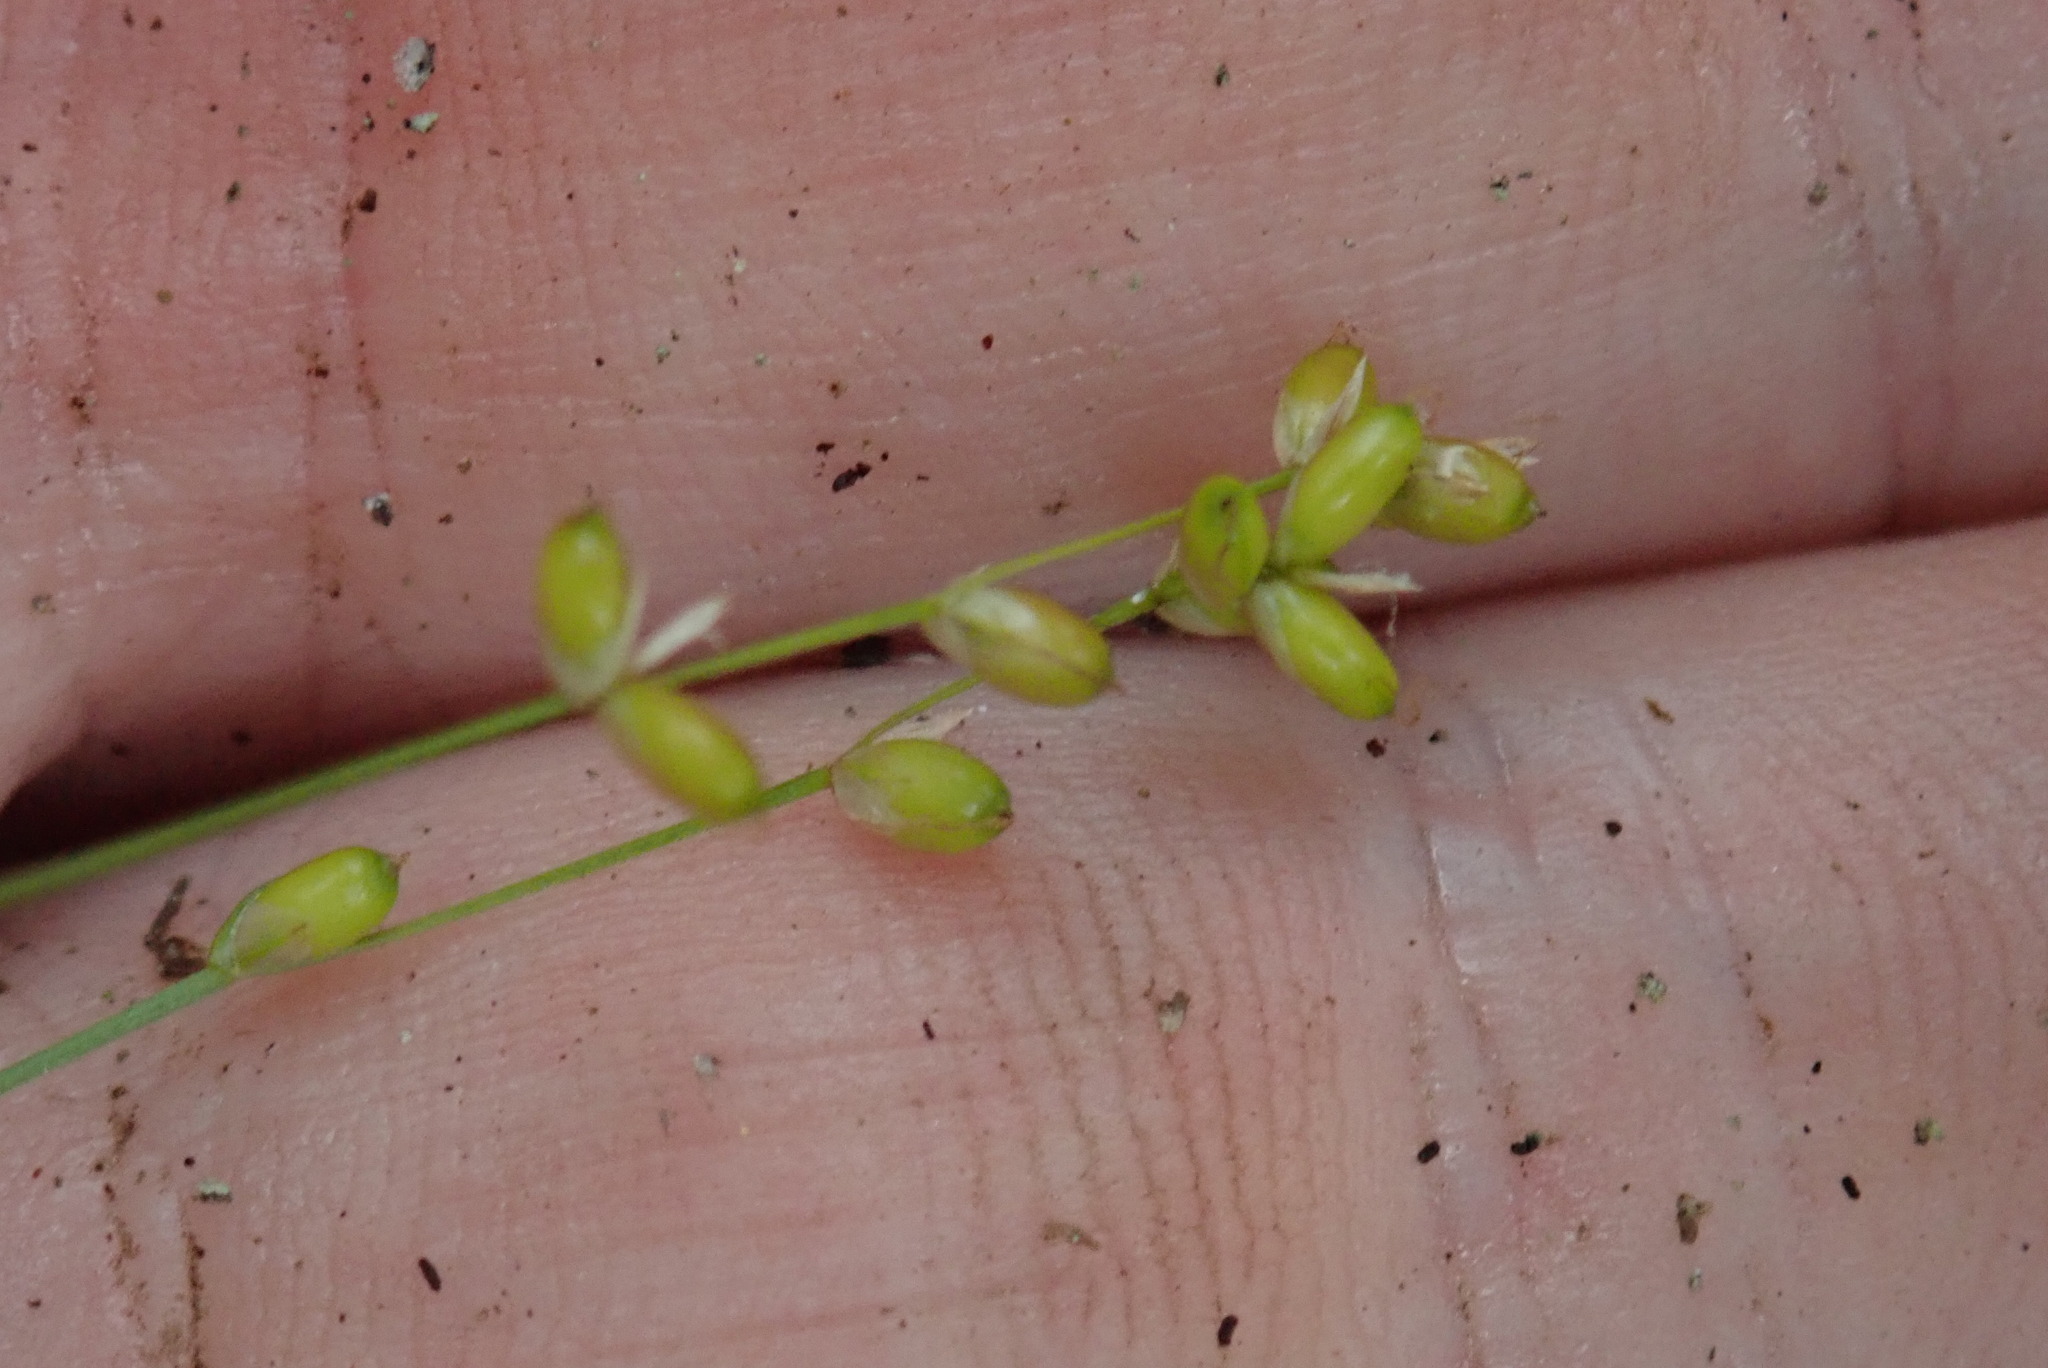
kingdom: Plantae
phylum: Tracheophyta
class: Liliopsida
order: Poales
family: Cyperaceae
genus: Carex
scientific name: Carex disperma
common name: Short-leaved sedge
